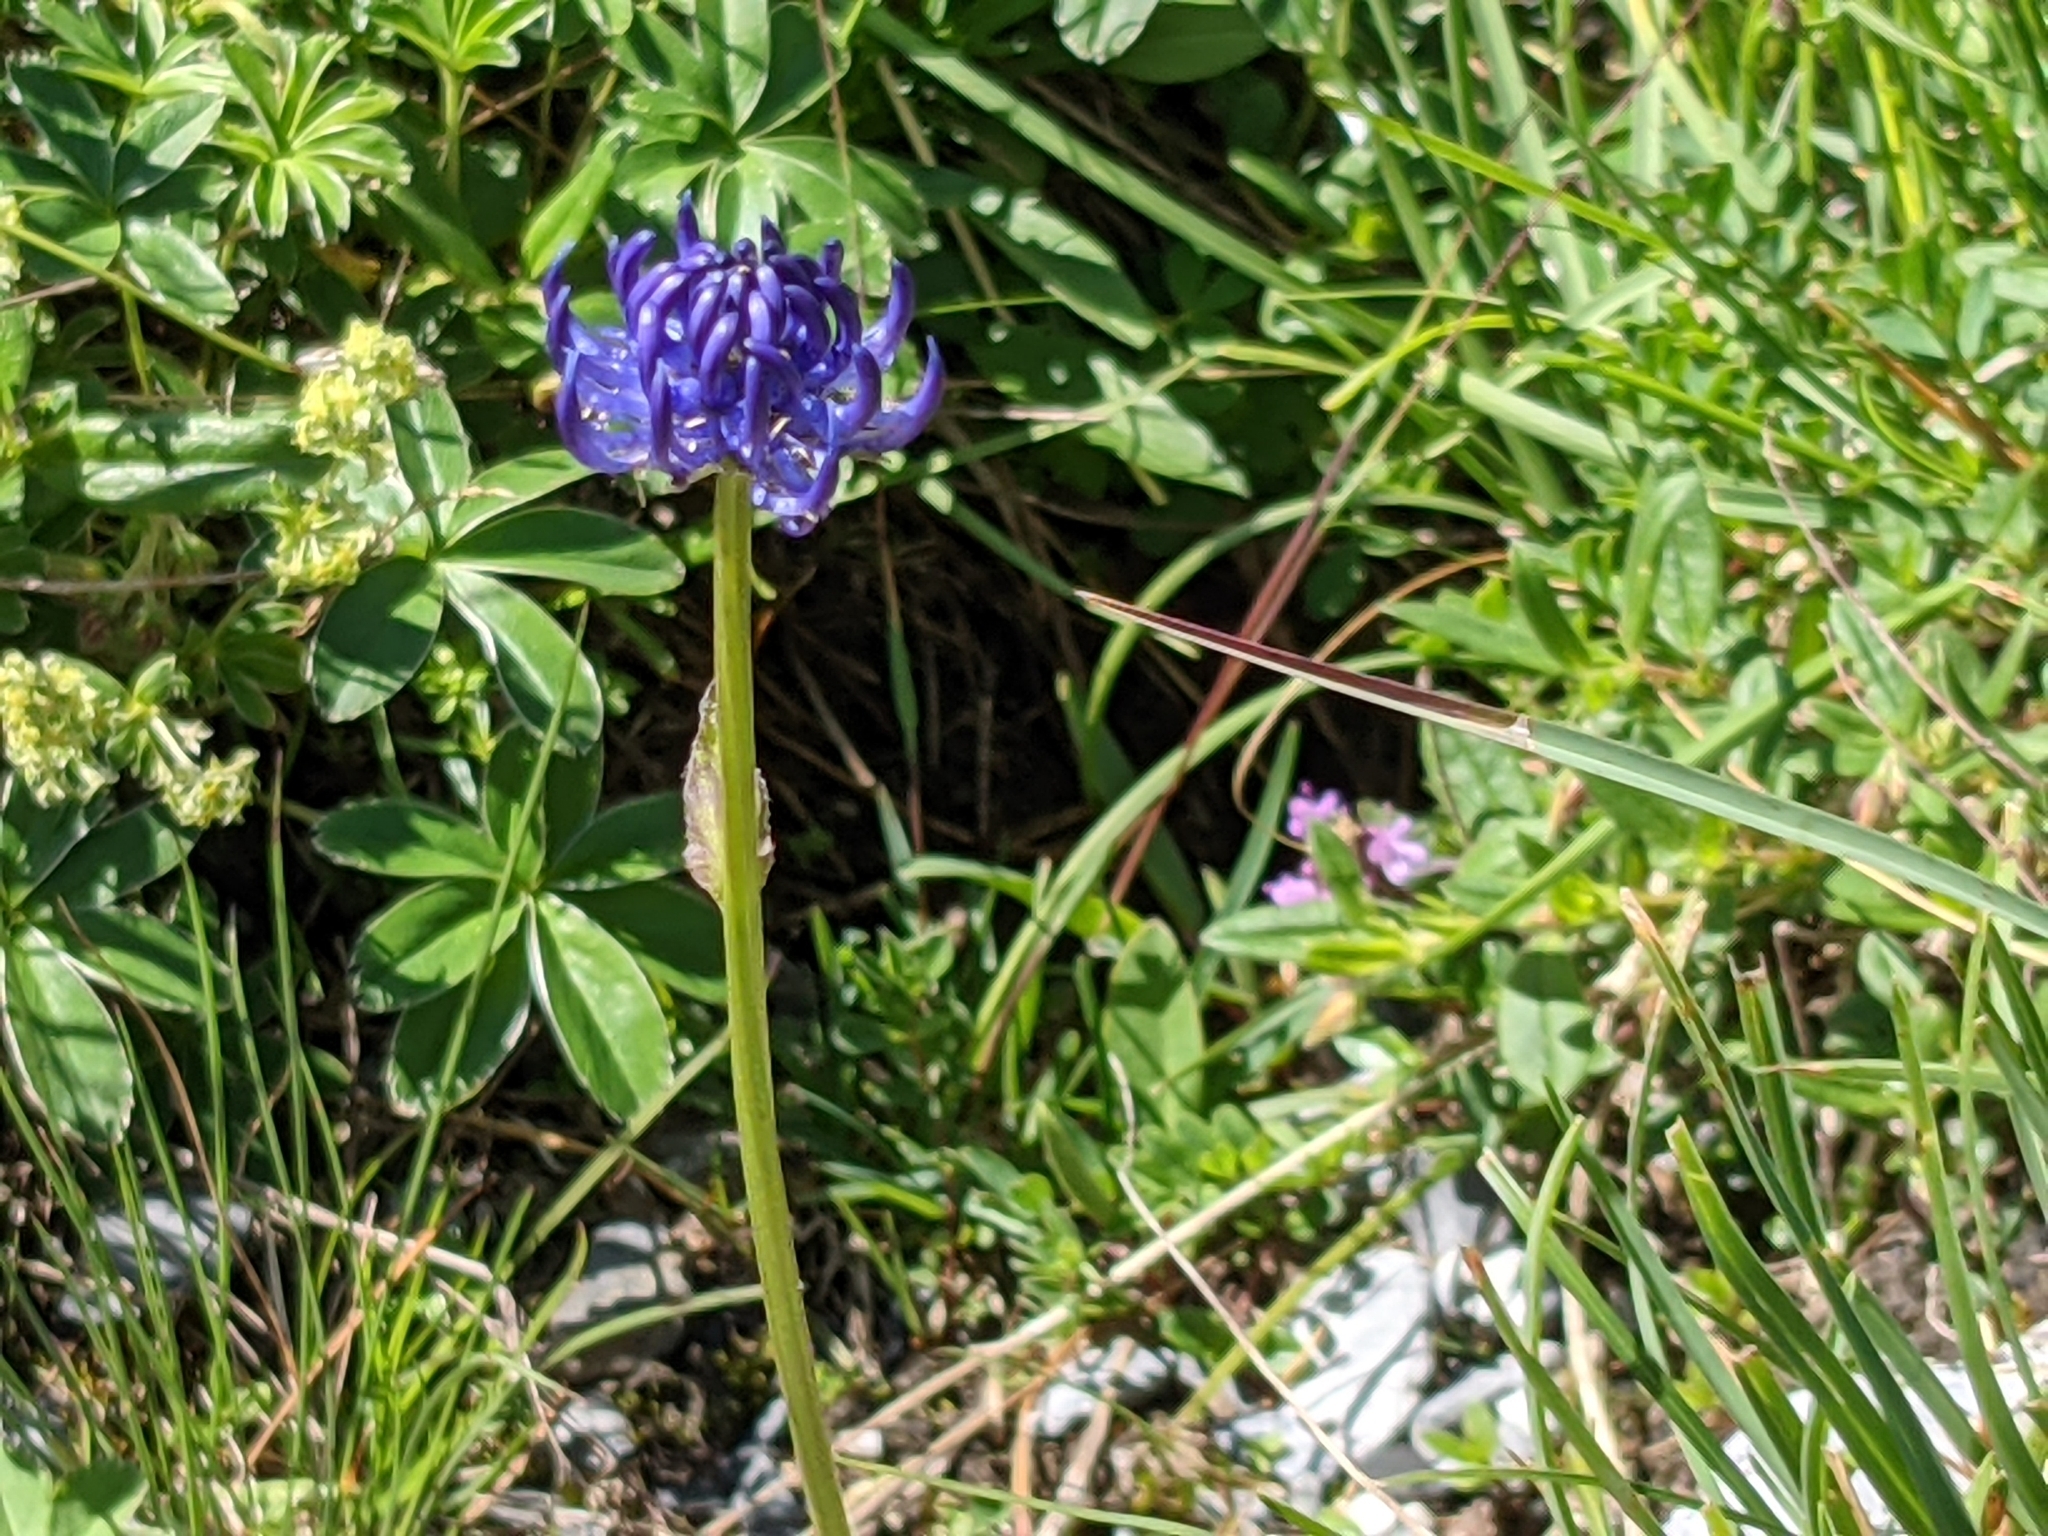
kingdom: Plantae
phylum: Tracheophyta
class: Magnoliopsida
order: Asterales
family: Campanulaceae
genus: Phyteuma
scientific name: Phyteuma orbiculare
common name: Round-headed rampion
